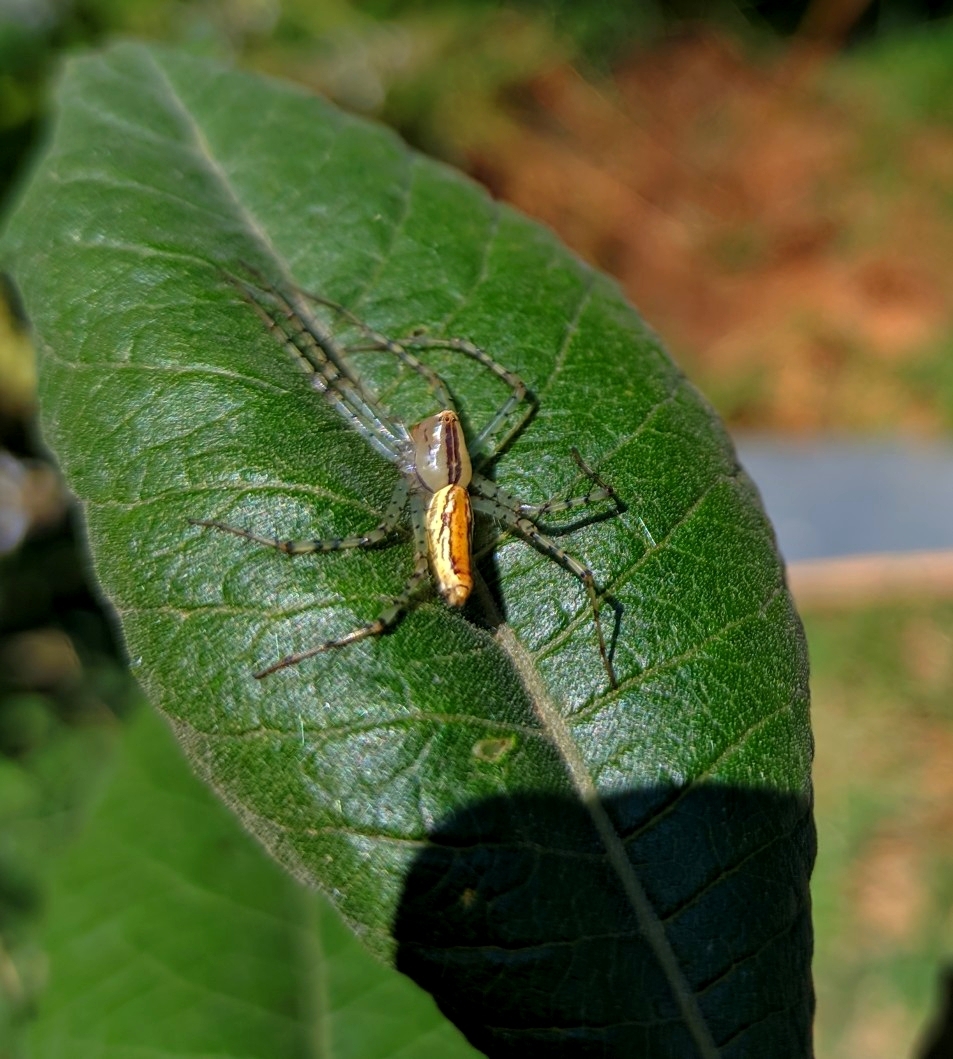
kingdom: Animalia
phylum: Arthropoda
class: Arachnida
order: Araneae
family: Oxyopidae
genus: Peucetia
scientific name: Peucetia rubrolineata
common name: Lynx spiders
